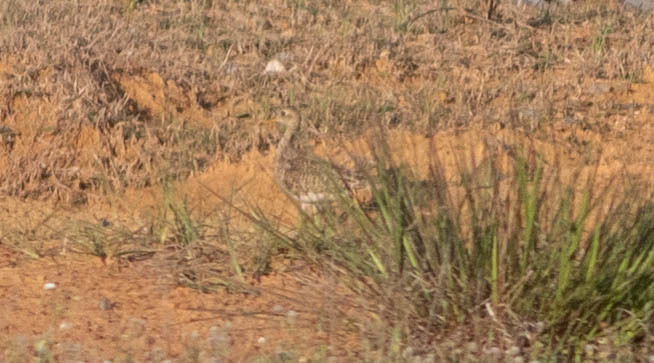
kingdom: Animalia
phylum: Chordata
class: Aves
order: Charadriiformes
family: Scolopacidae
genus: Bartramia
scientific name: Bartramia longicauda
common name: Upland sandpiper
